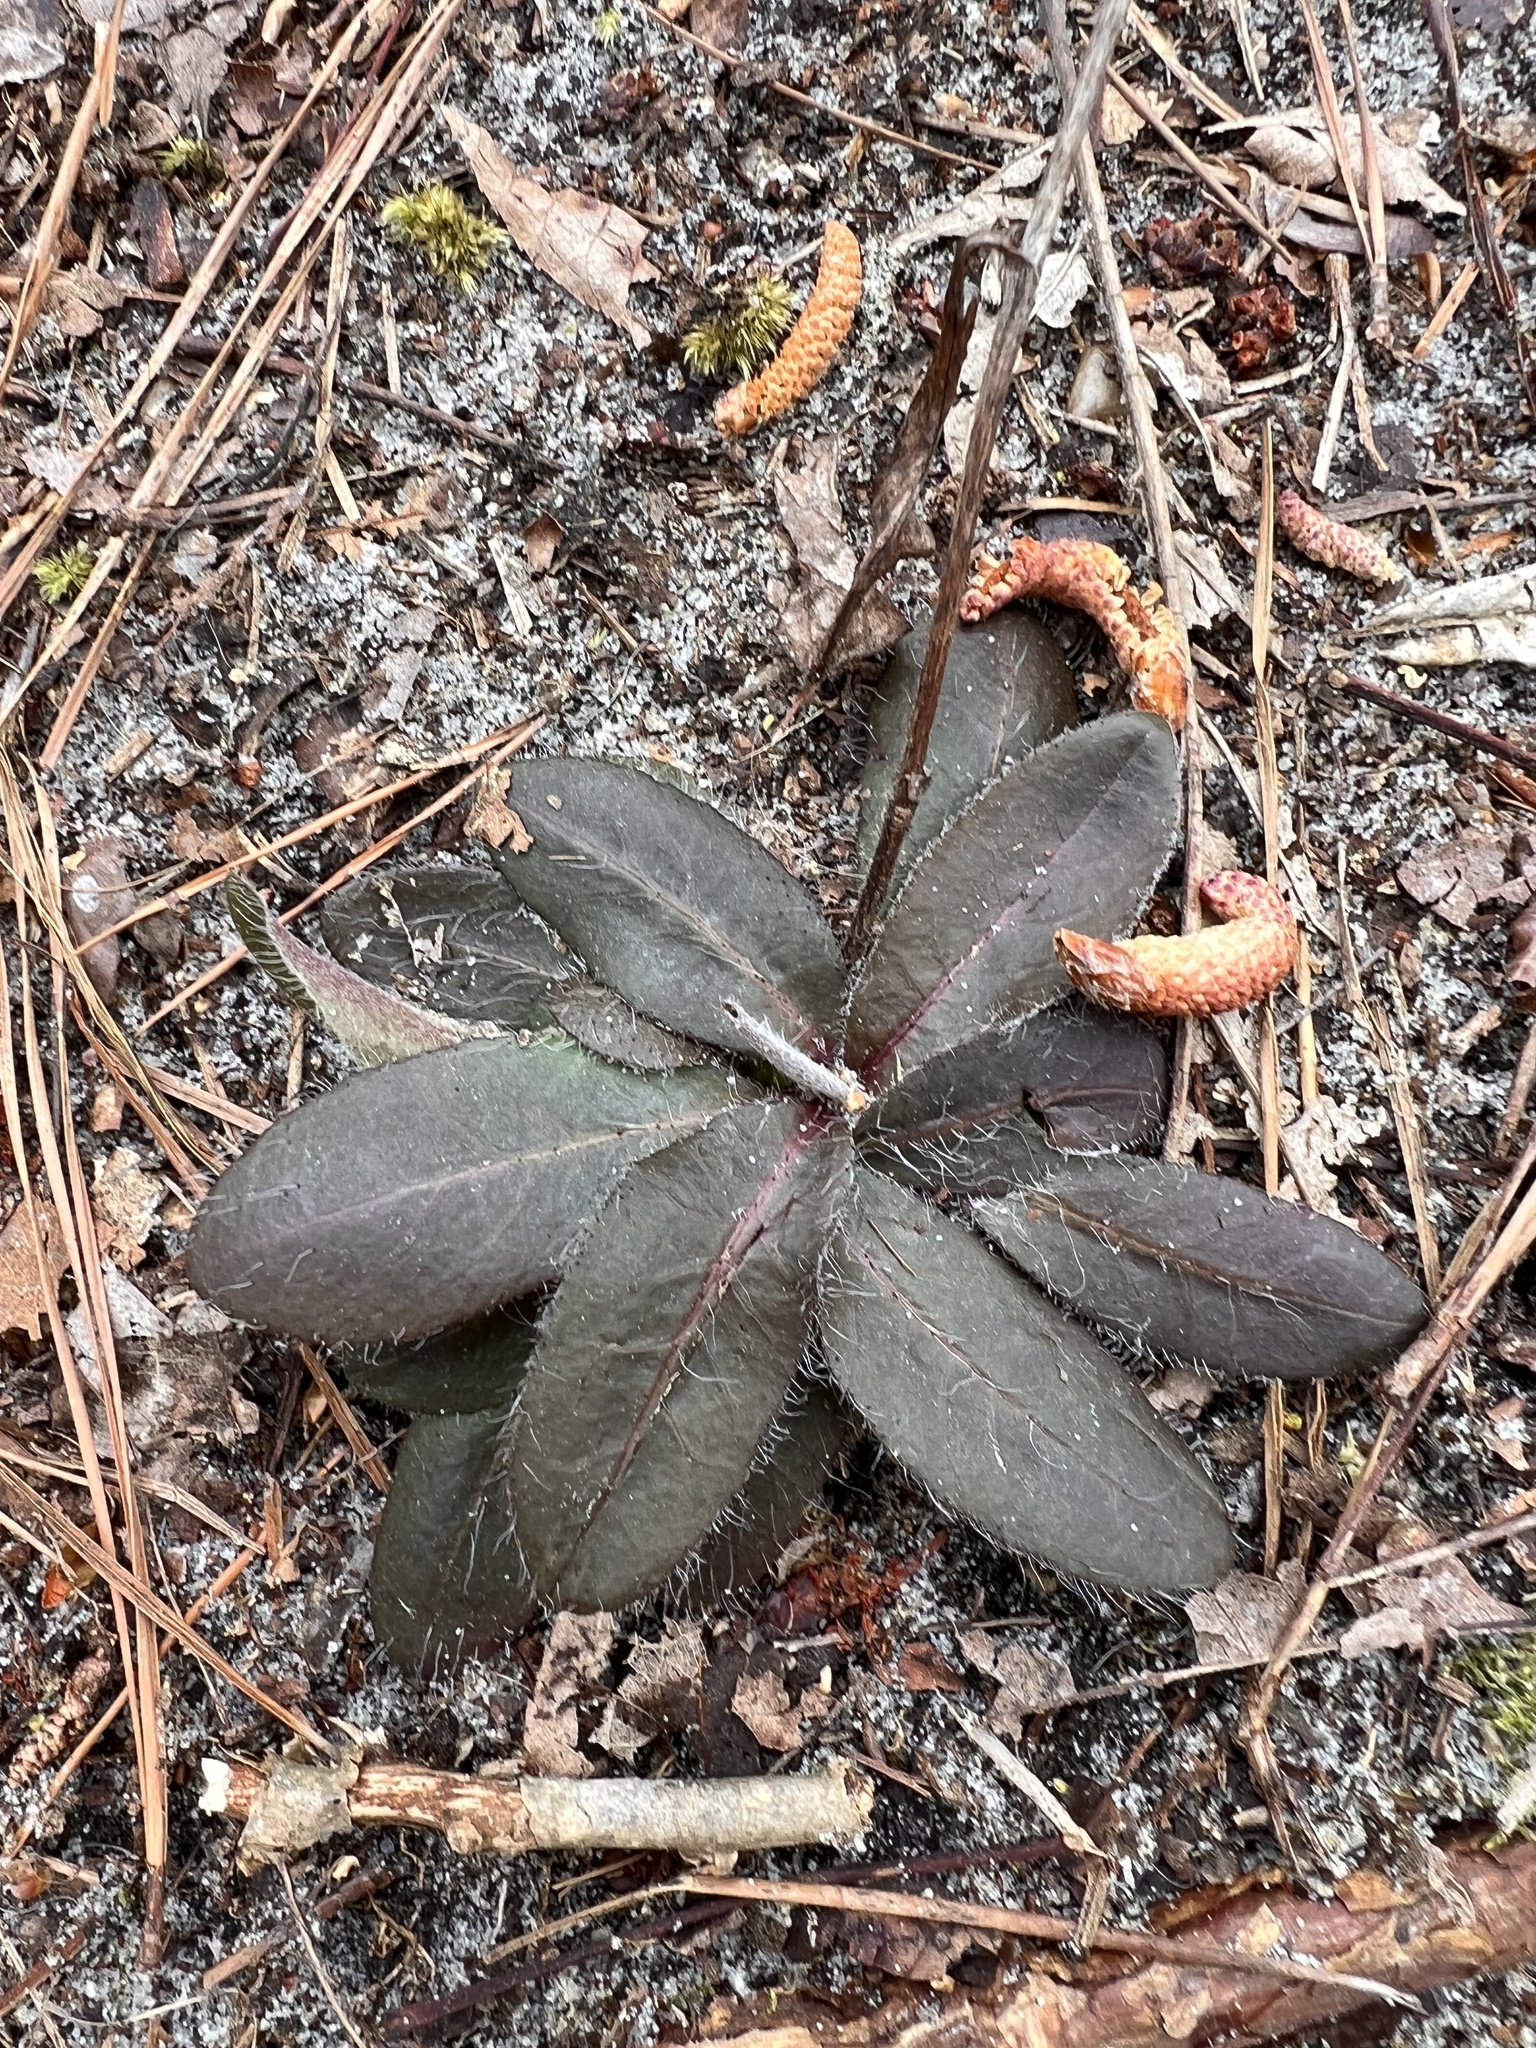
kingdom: Plantae
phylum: Tracheophyta
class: Magnoliopsida
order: Asterales
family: Asteraceae
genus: Hieracium
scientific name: Hieracium megacephalum
